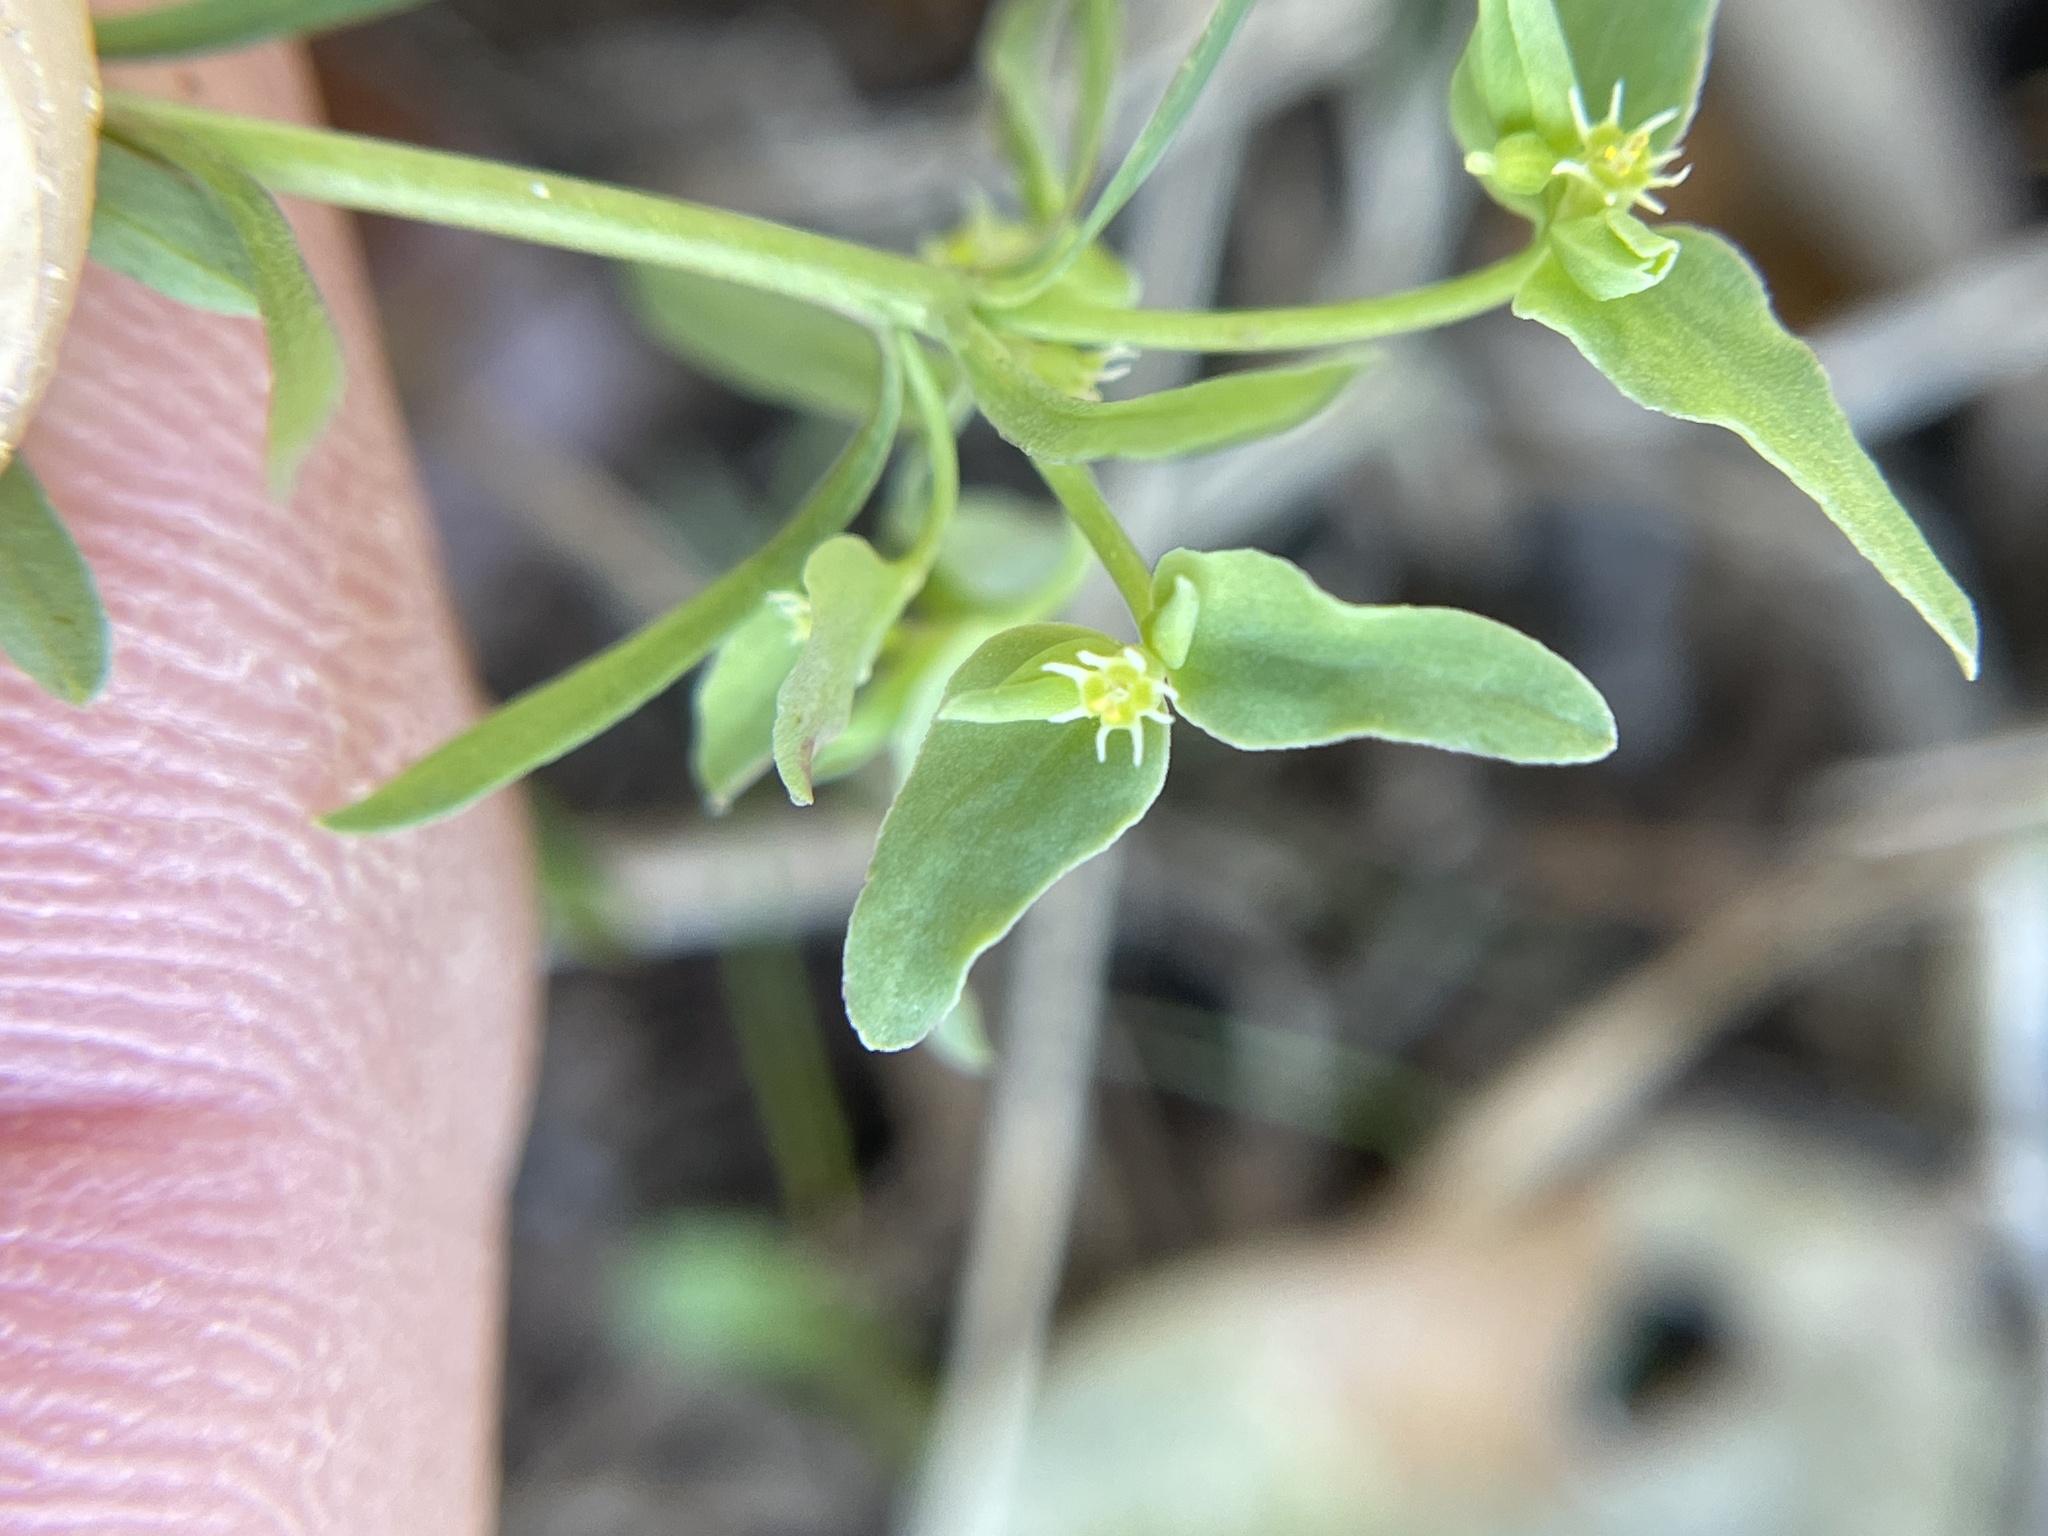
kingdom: Plantae
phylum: Tracheophyta
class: Magnoliopsida
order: Malpighiales
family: Euphorbiaceae
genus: Euphorbia
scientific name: Euphorbia peplidion
